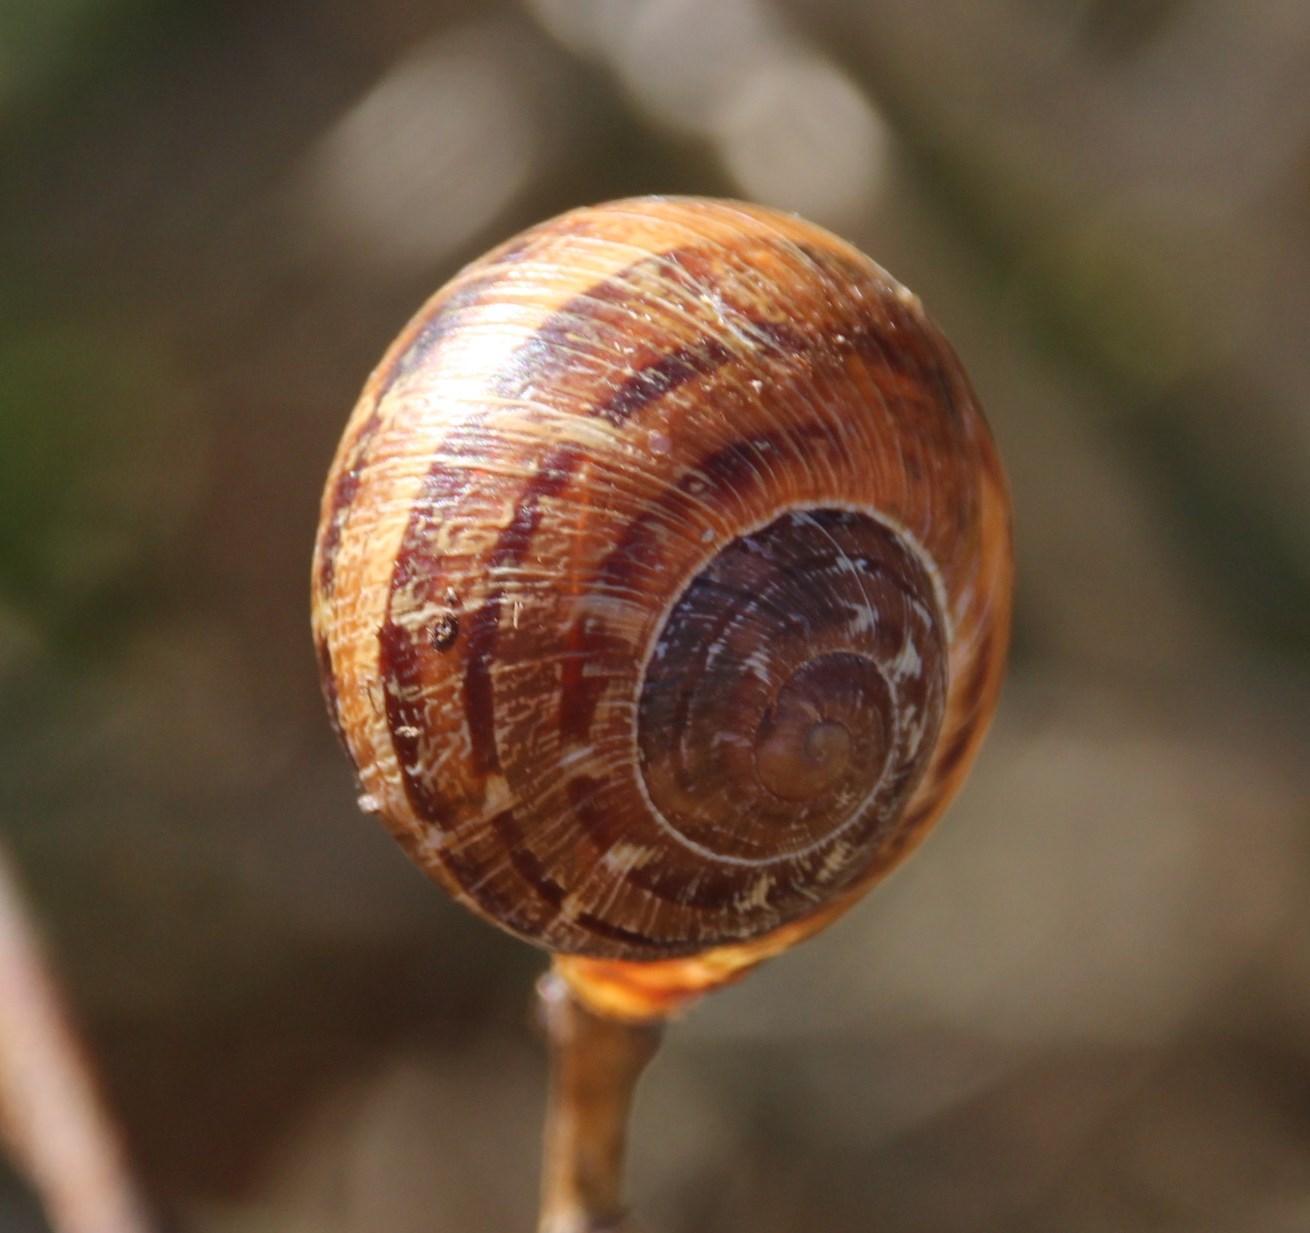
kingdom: Animalia
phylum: Chordata
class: Aves
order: Passeriformes
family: Laniidae
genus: Lanius
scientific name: Lanius collaris
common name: Southern fiscal
